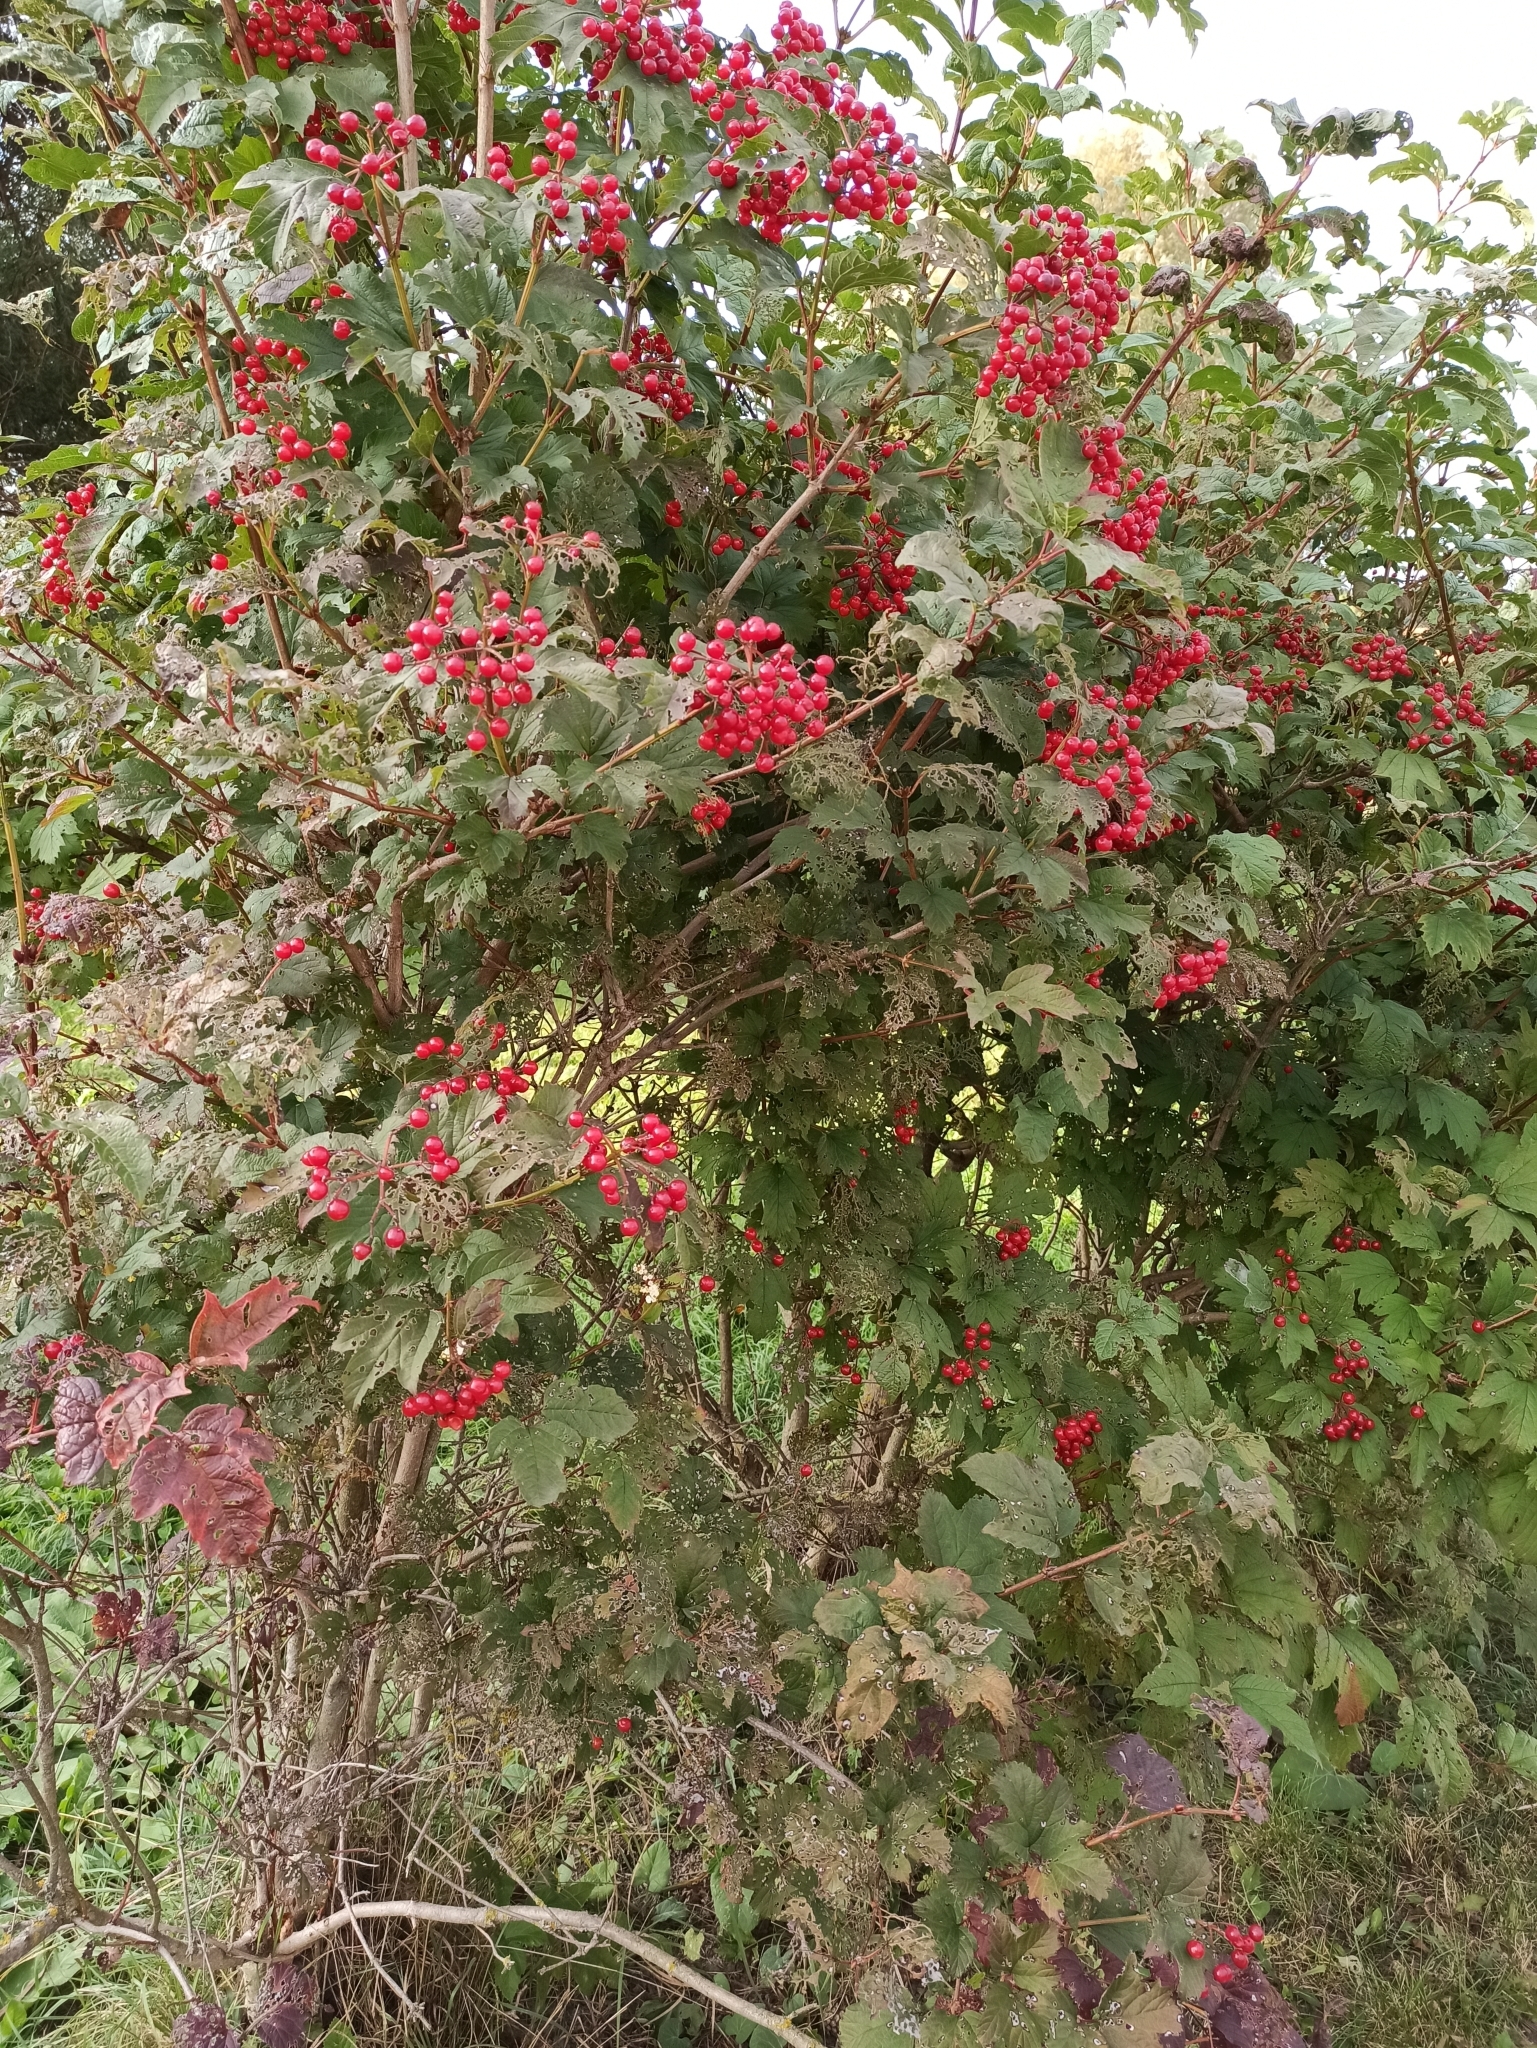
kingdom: Plantae
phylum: Tracheophyta
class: Magnoliopsida
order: Dipsacales
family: Viburnaceae
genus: Viburnum
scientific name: Viburnum opulus
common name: Guelder-rose
